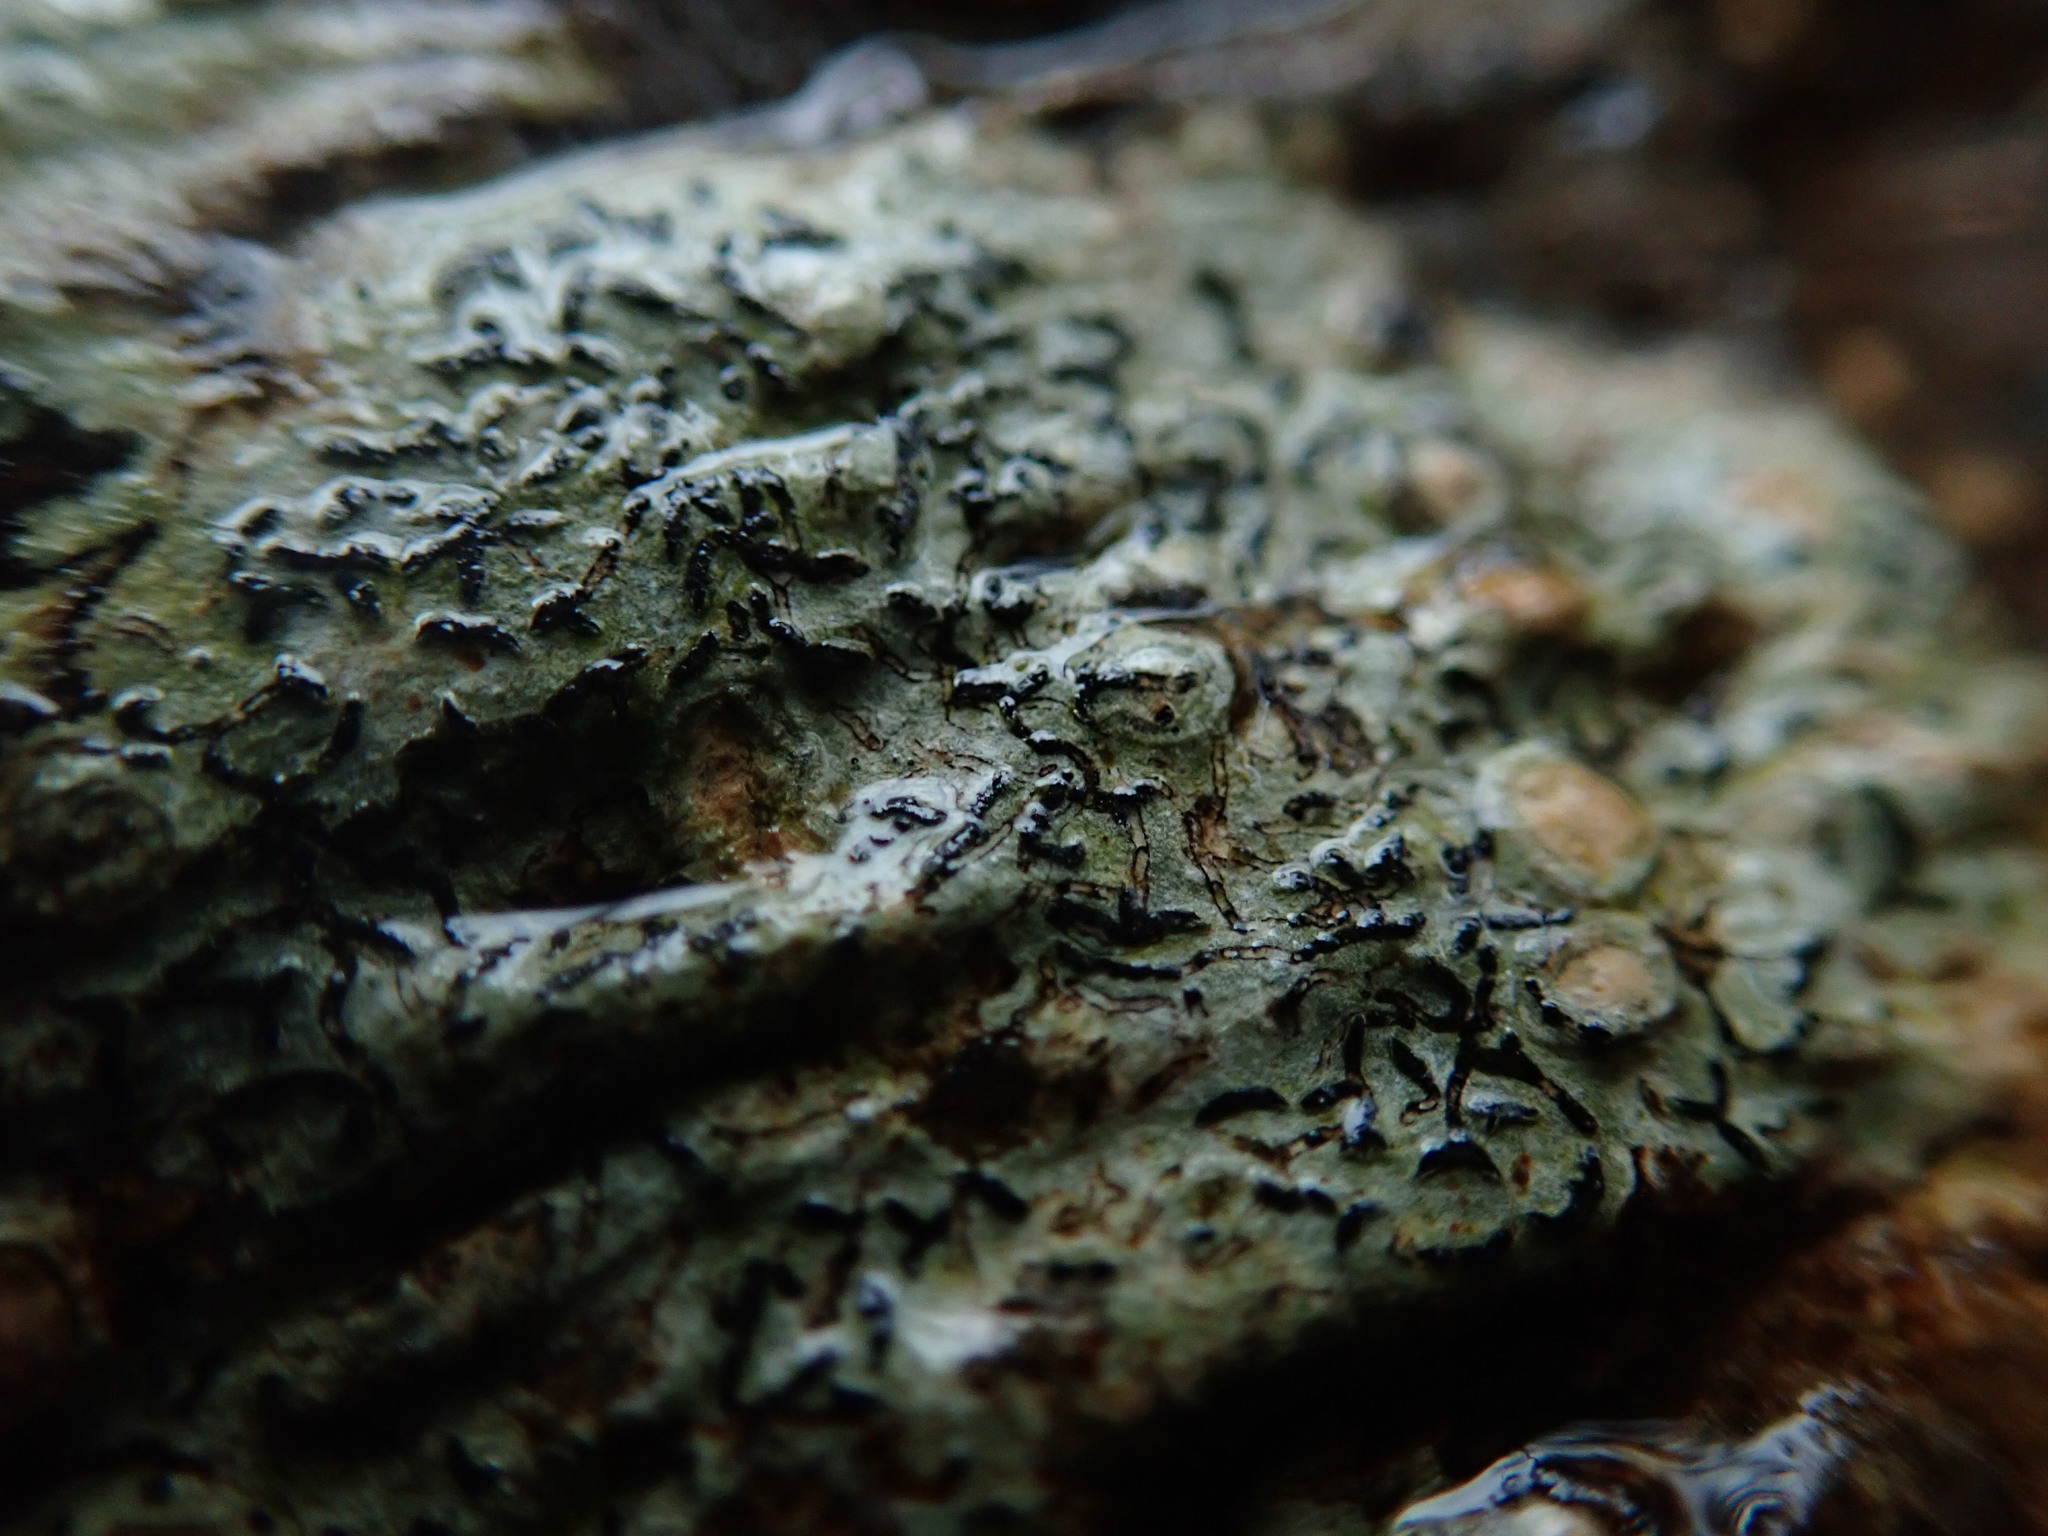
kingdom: Fungi
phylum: Ascomycota
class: Lecanoromycetes
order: Ostropales
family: Graphidaceae
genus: Graphis
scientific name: Graphis scripta
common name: Script lichen
